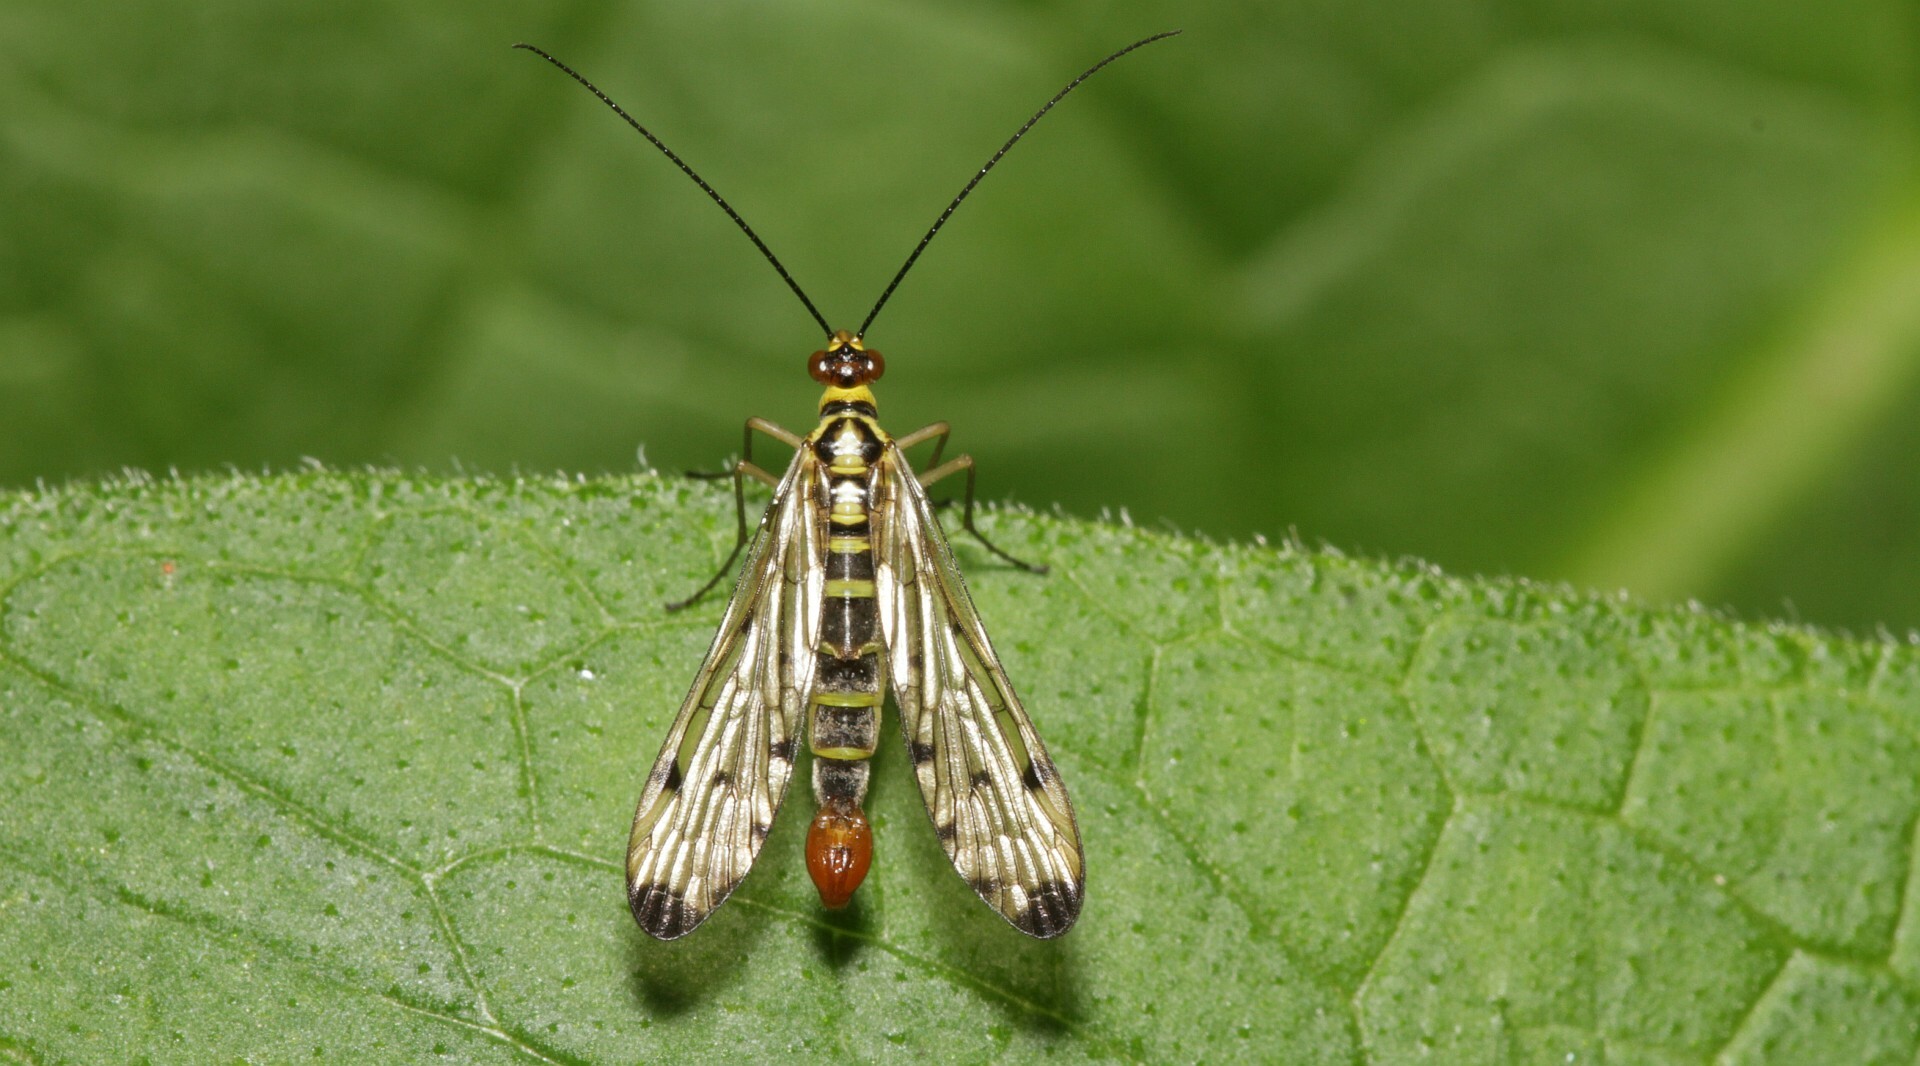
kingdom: Animalia
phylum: Arthropoda
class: Insecta
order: Mecoptera
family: Panorpidae
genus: Panorpa
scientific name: Panorpa germanica
